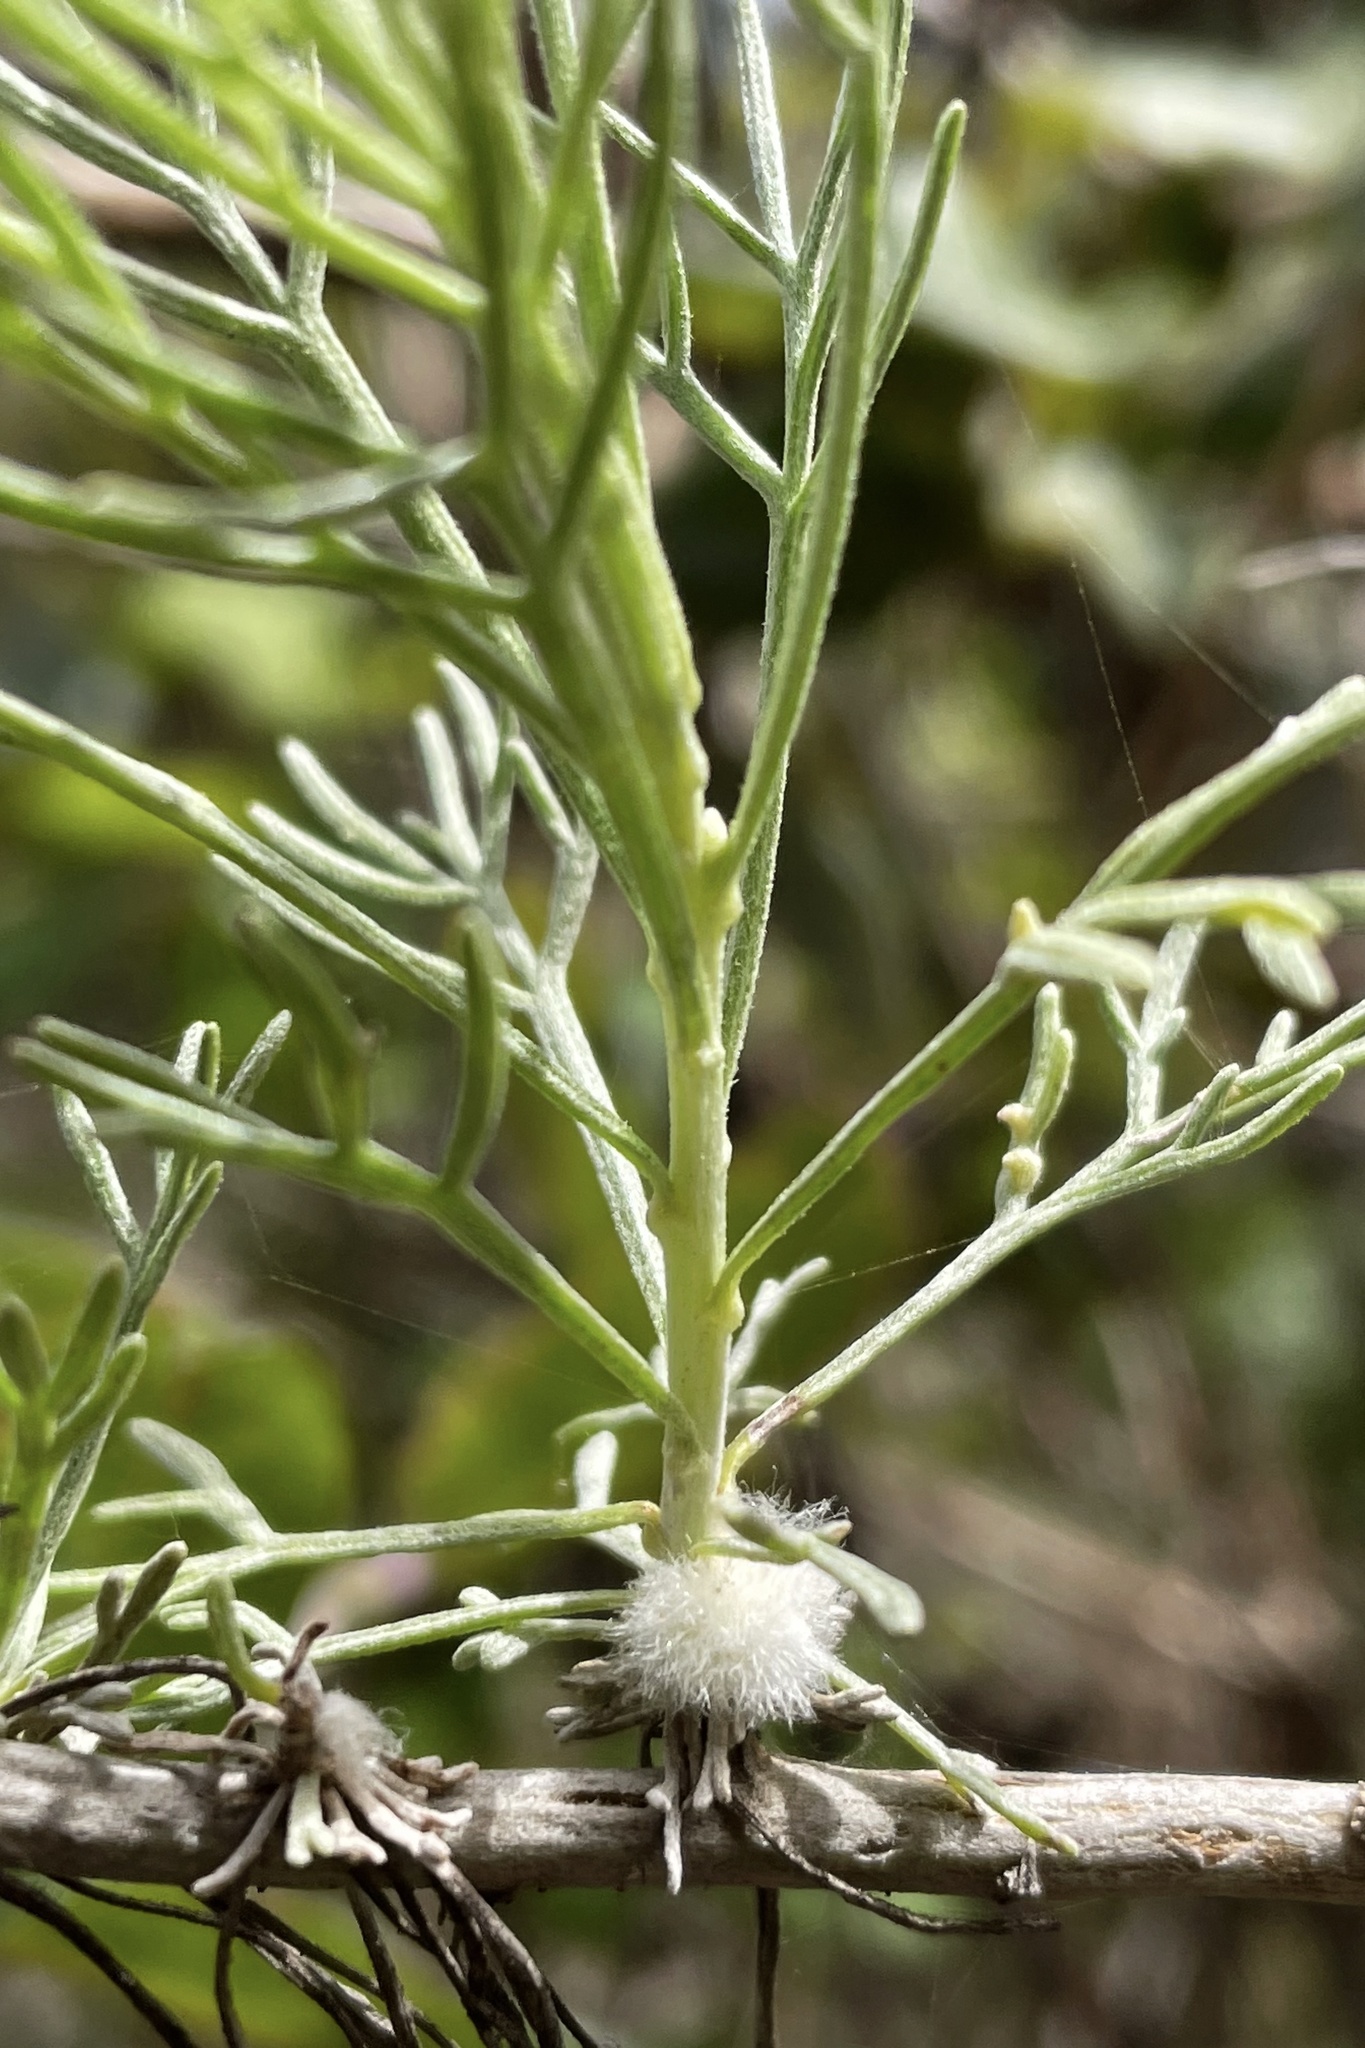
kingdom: Animalia
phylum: Arthropoda
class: Insecta
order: Diptera
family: Cecidomyiidae
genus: Rhopalomyia
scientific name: Rhopalomyia floccosa
